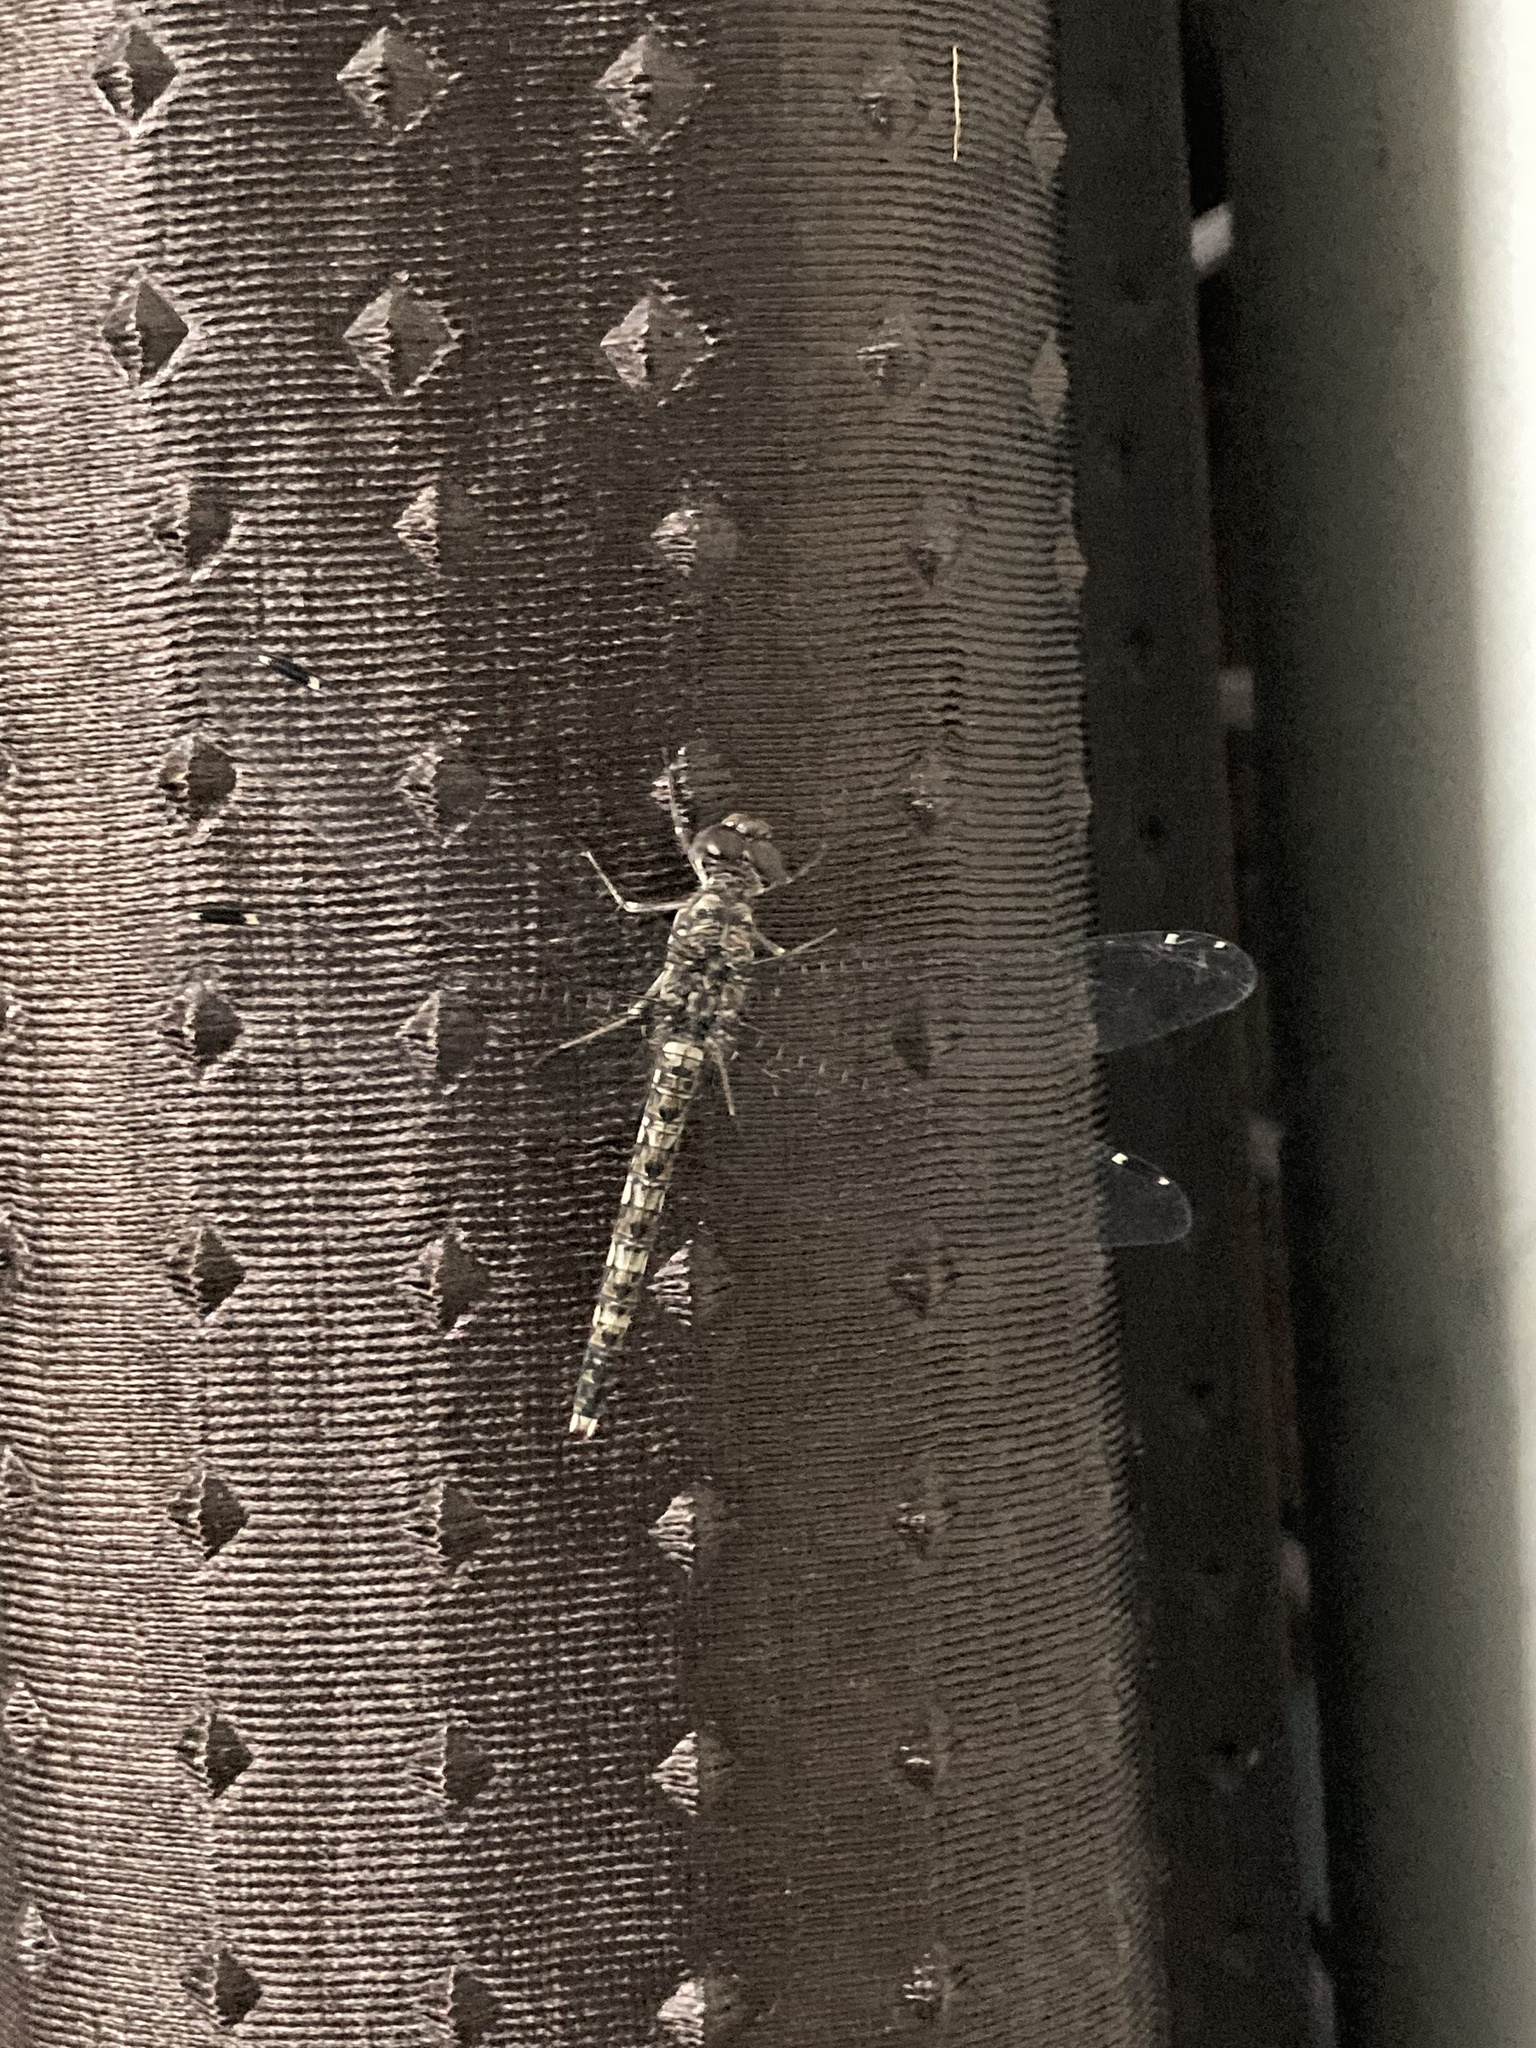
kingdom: Animalia
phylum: Arthropoda
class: Insecta
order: Odonata
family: Libellulidae
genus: Bradinopyga
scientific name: Bradinopyga geminata
